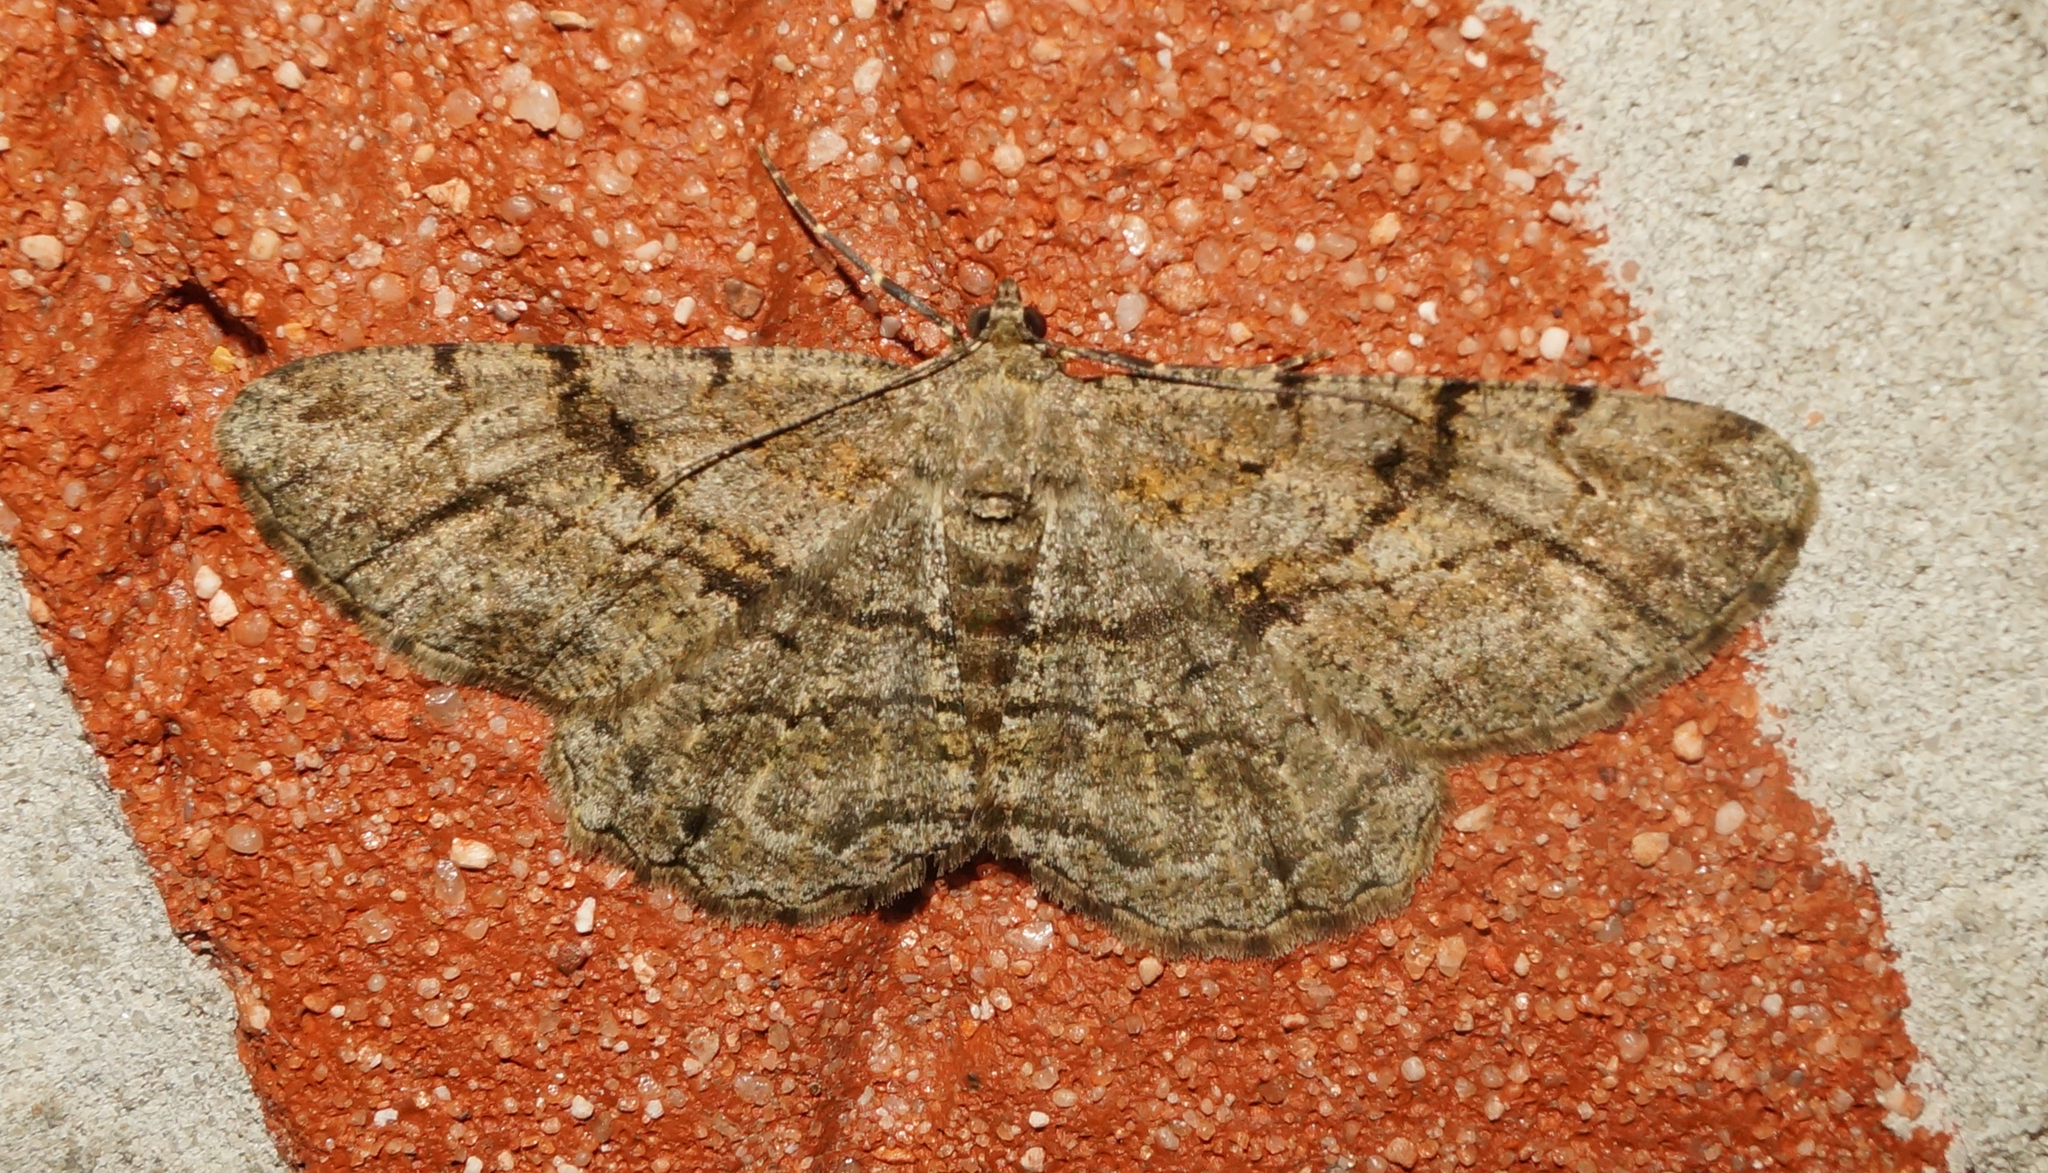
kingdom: Animalia
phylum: Arthropoda
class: Insecta
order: Lepidoptera
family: Geometridae
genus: Peribatodes
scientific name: Peribatodes rhomboidaria
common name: Willow beauty
